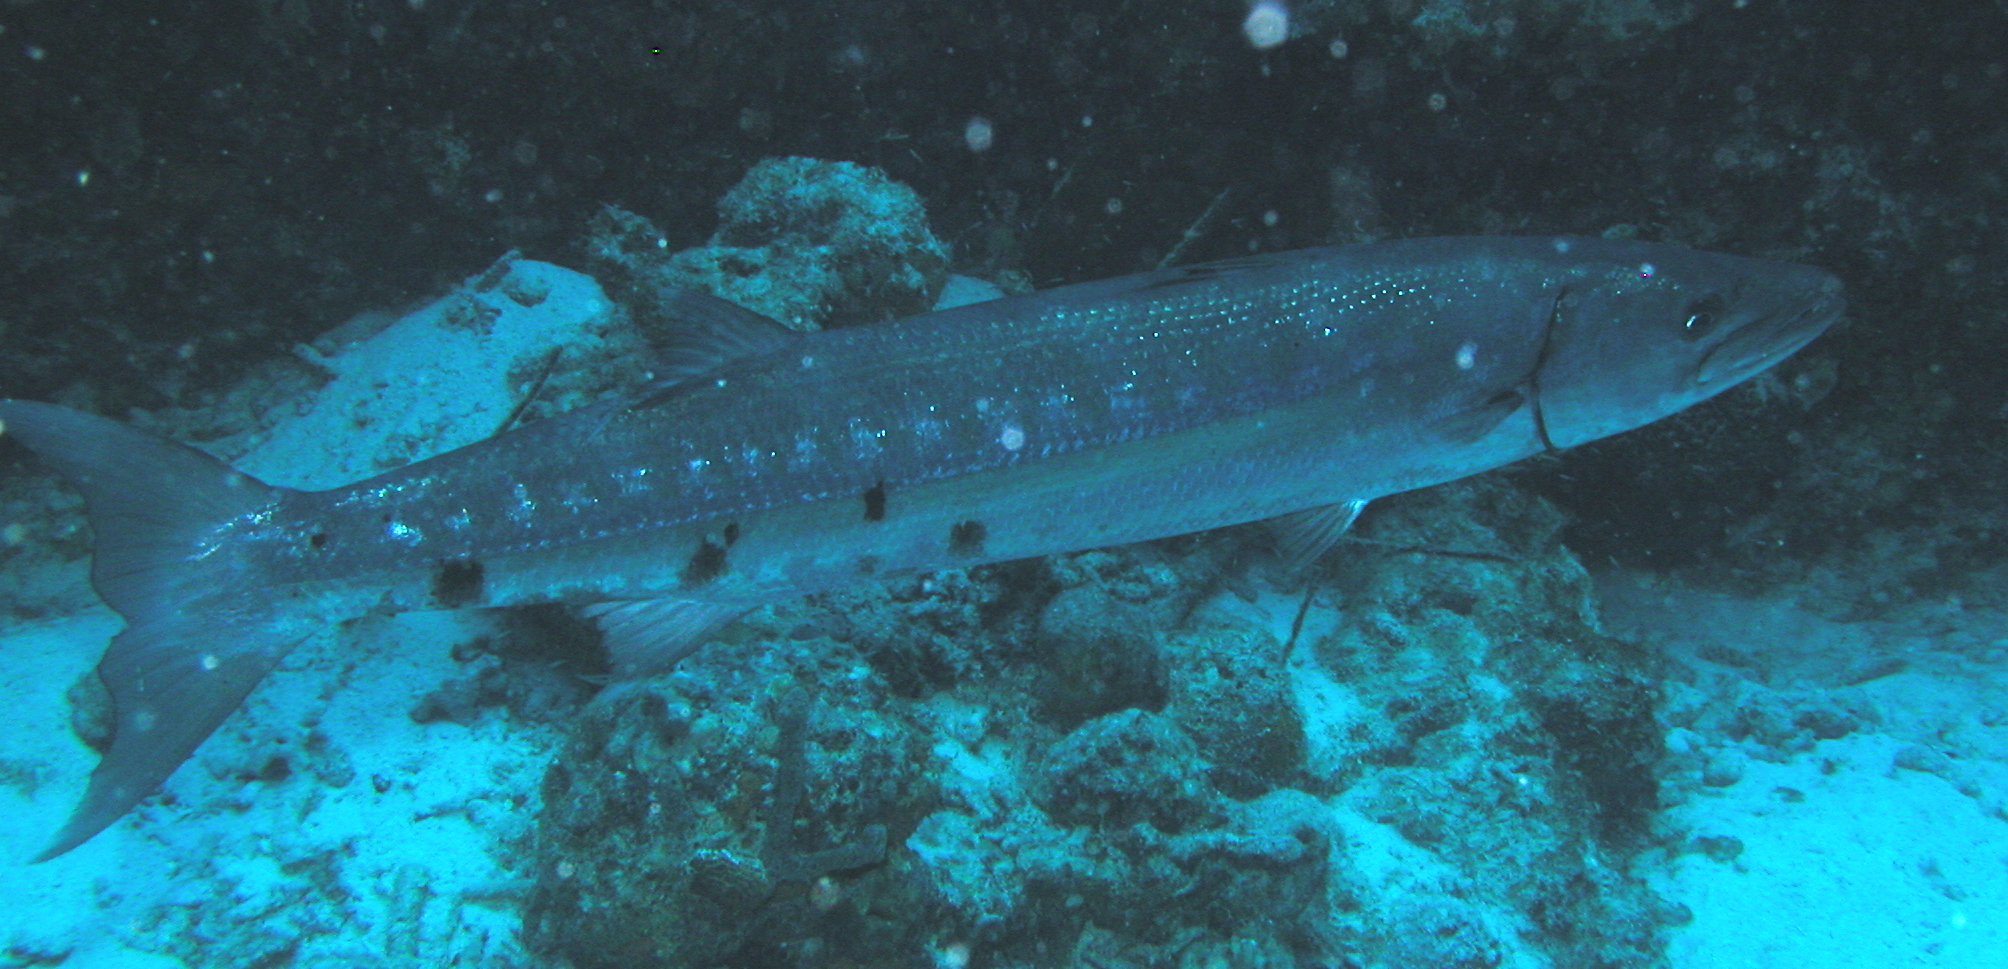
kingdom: Animalia
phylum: Chordata
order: Perciformes
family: Sphyraenidae
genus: Sphyraena
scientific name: Sphyraena barracuda
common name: Great barracuda
